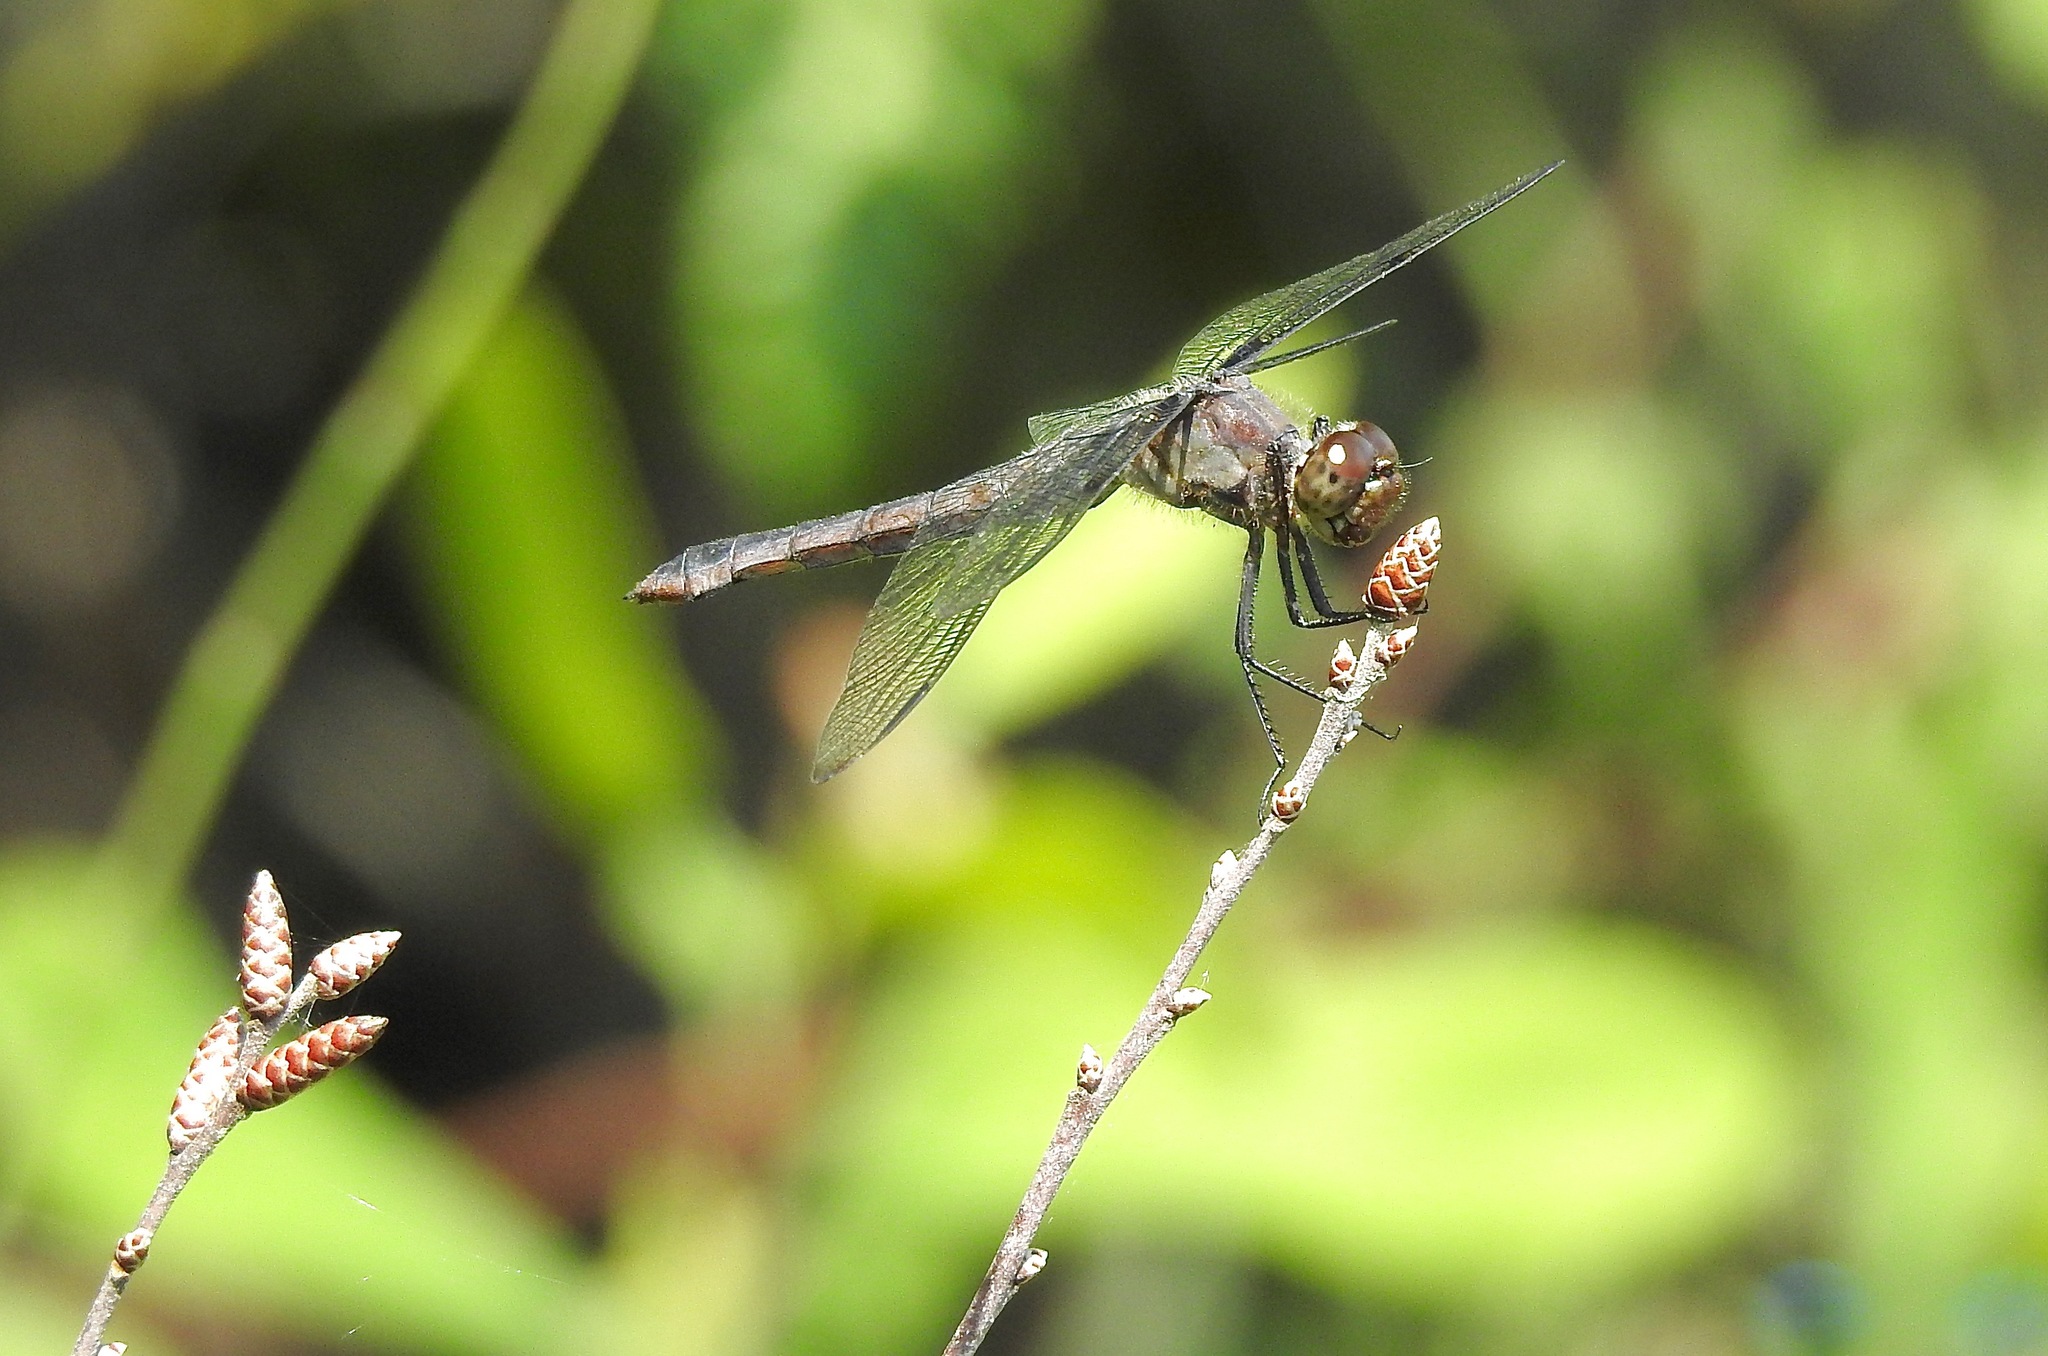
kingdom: Animalia
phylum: Arthropoda
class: Insecta
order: Odonata
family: Libellulidae
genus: Libellula
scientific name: Libellula incesta
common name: Slaty skimmer
